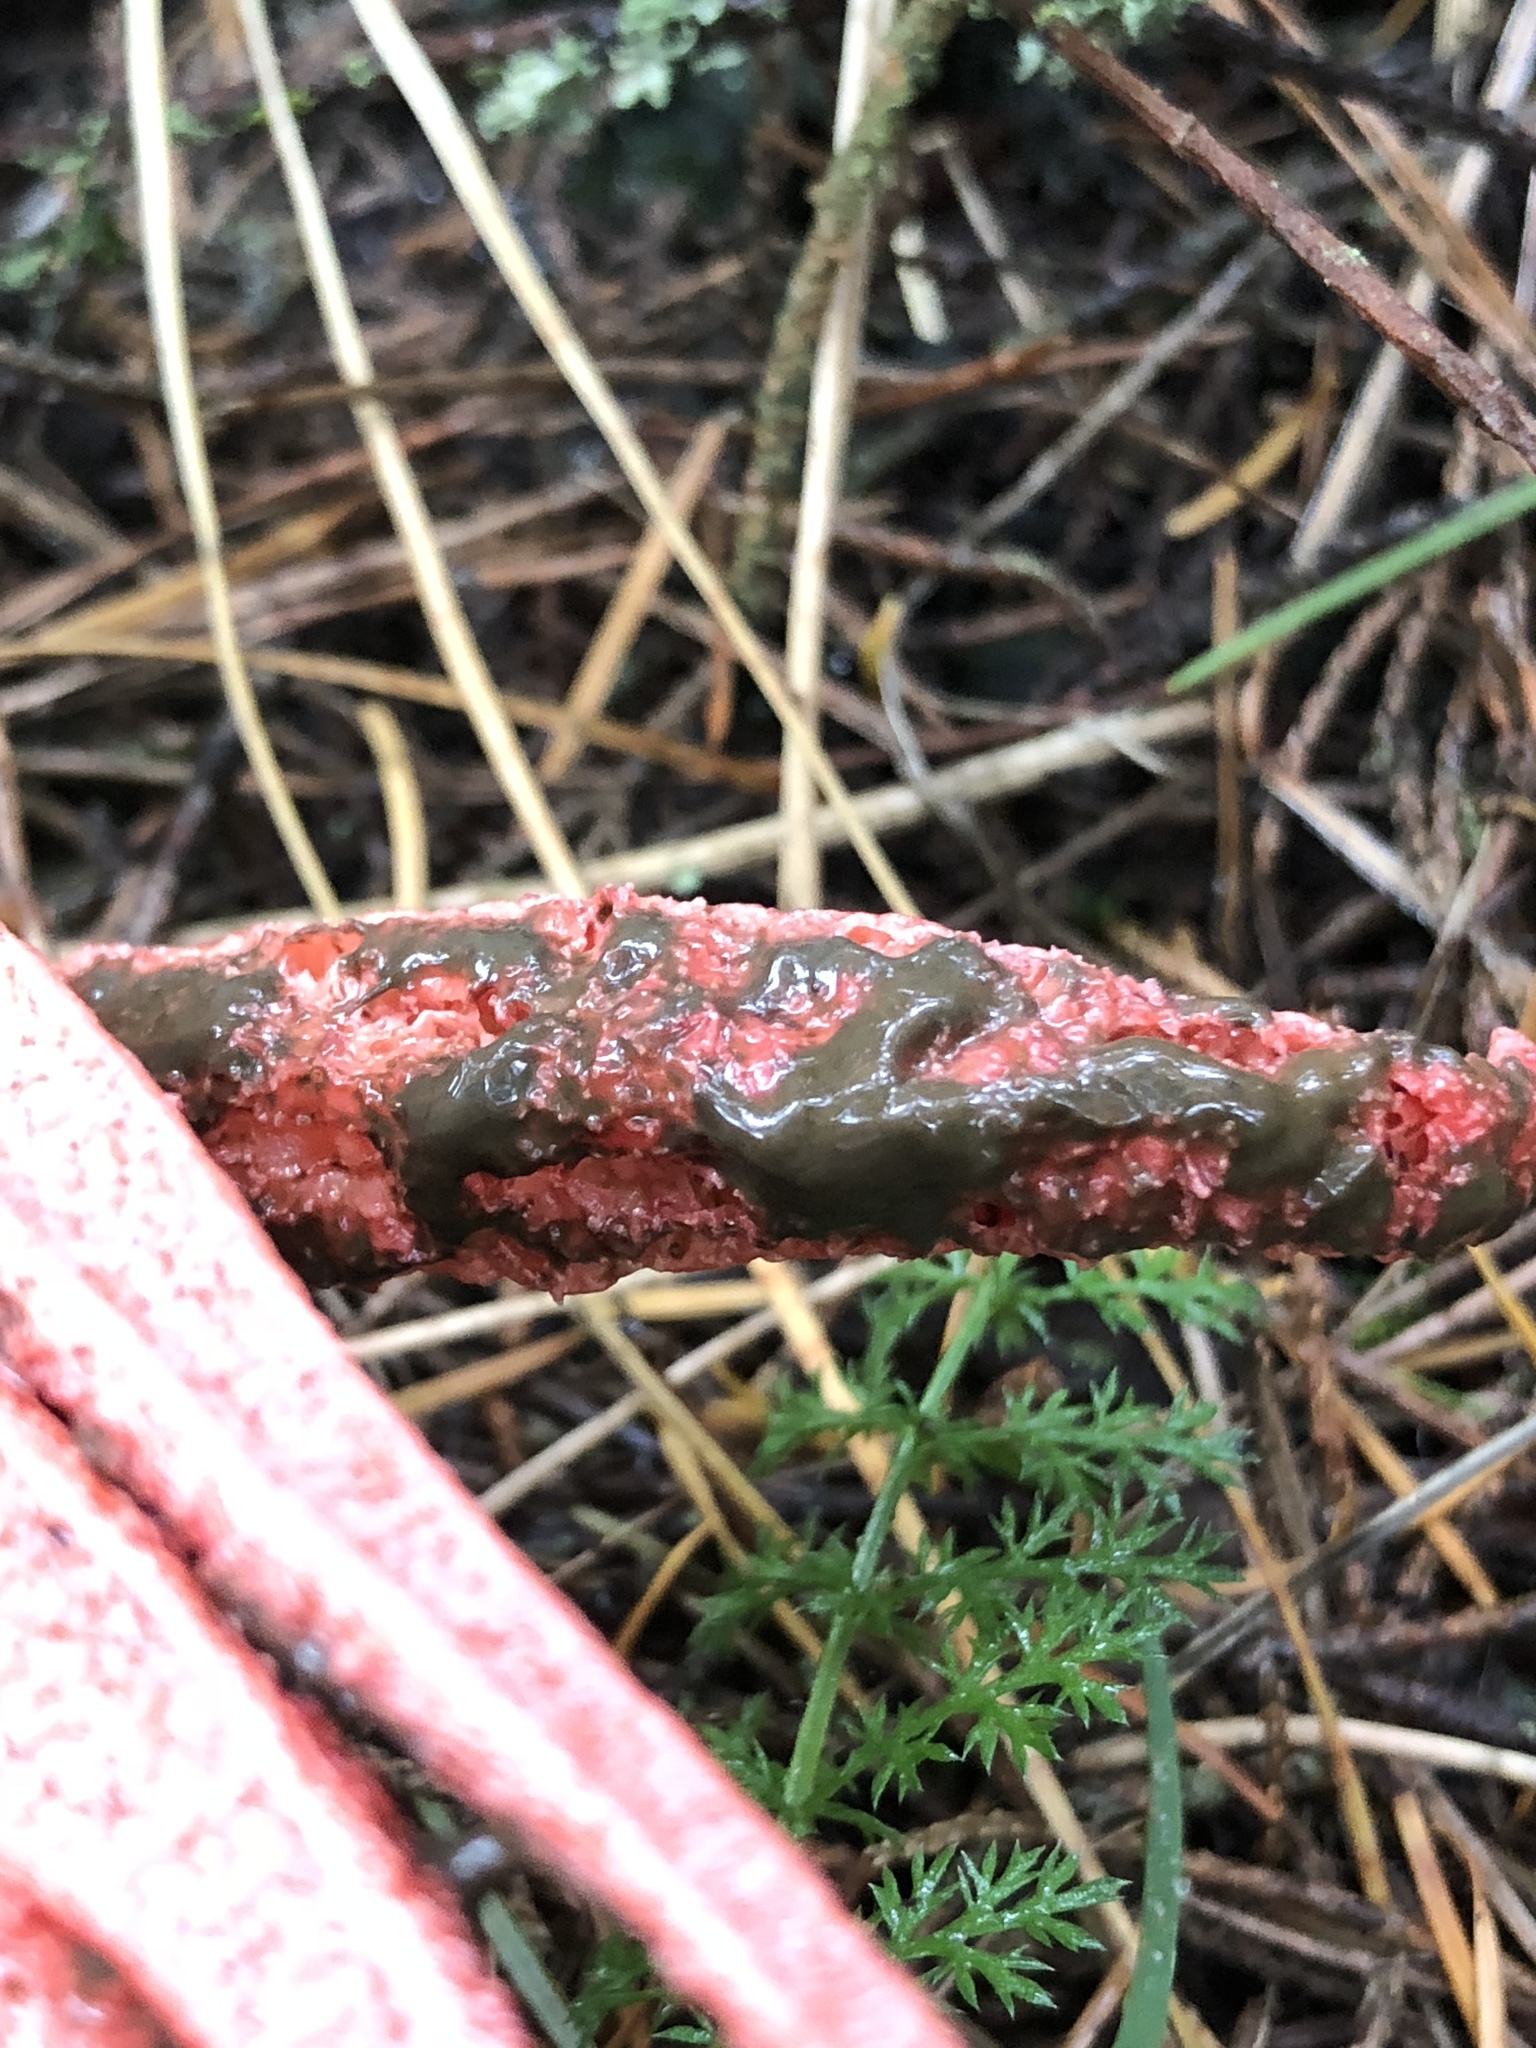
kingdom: Fungi
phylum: Basidiomycota
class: Agaricomycetes
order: Phallales
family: Phallaceae
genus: Clathrus
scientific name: Clathrus archeri
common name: Devil's fingers
